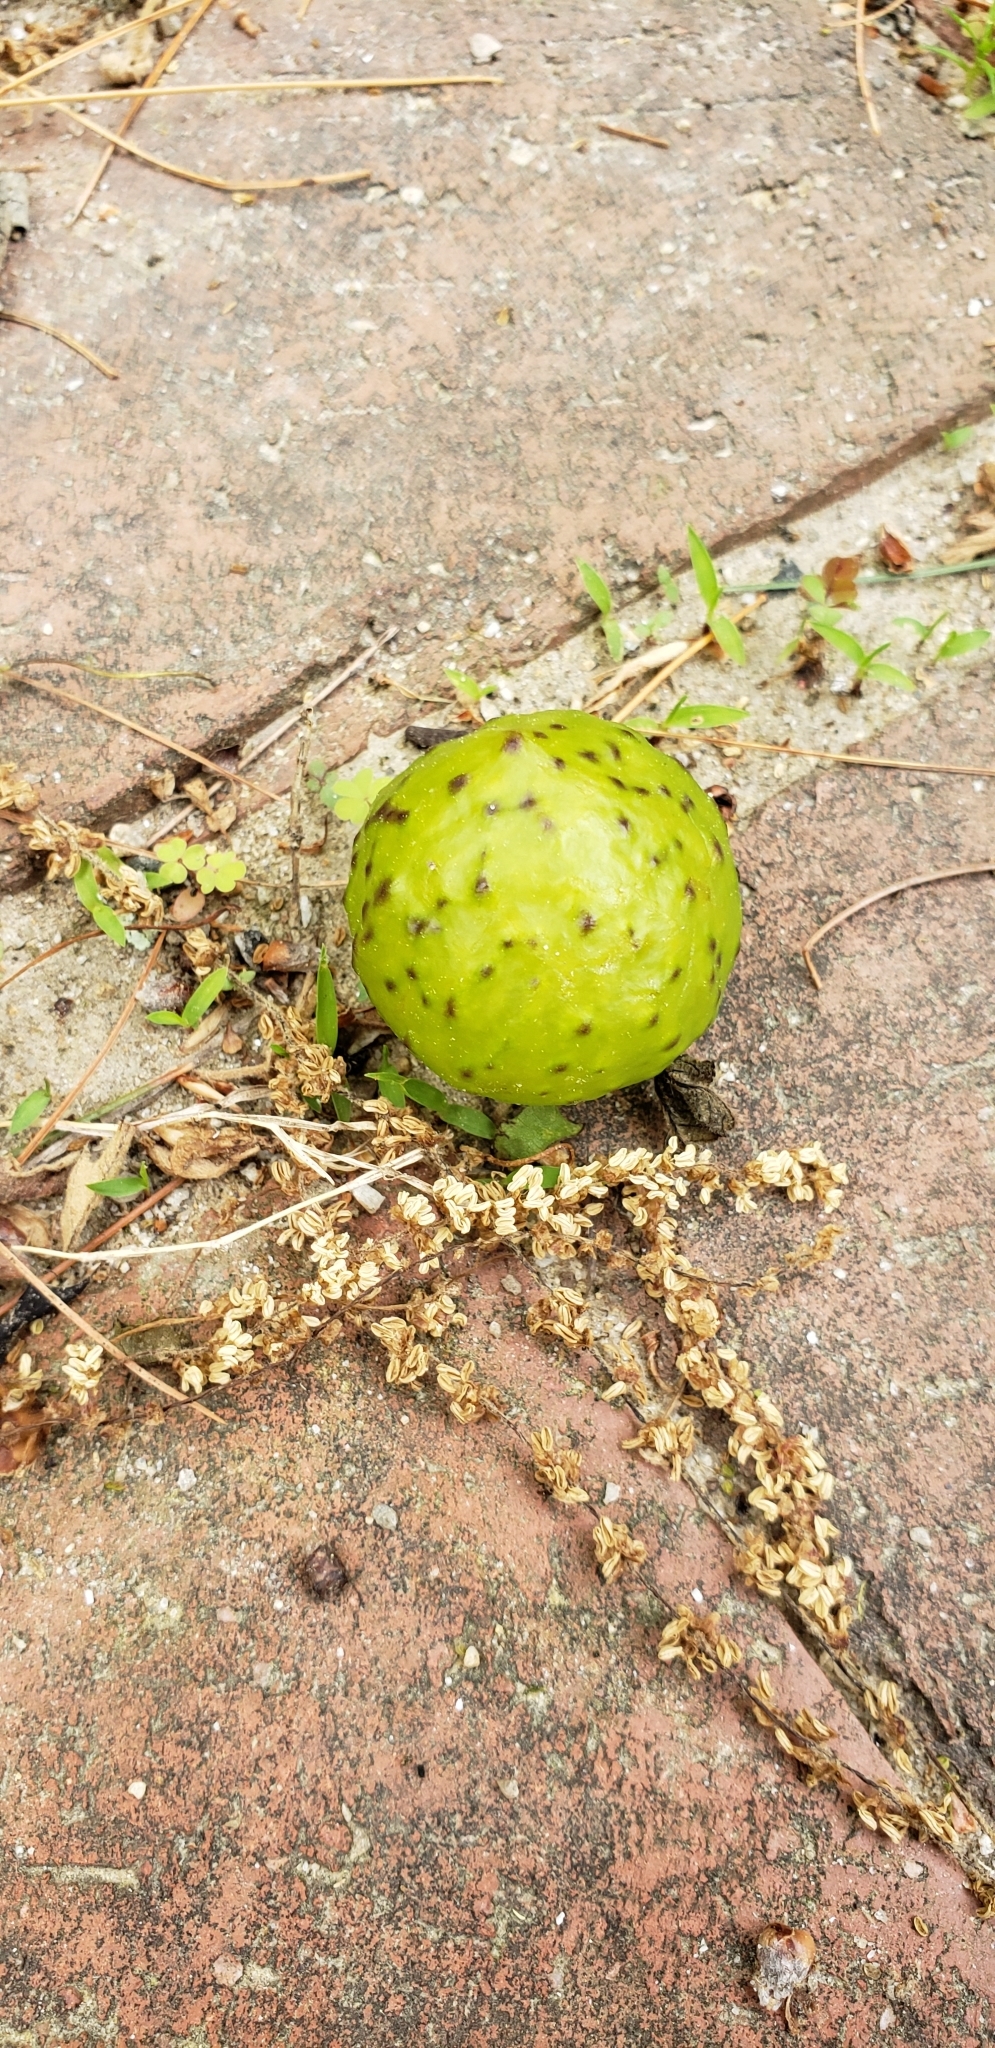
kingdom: Animalia
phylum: Arthropoda
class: Insecta
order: Hymenoptera
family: Cynipidae
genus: Amphibolips
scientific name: Amphibolips
